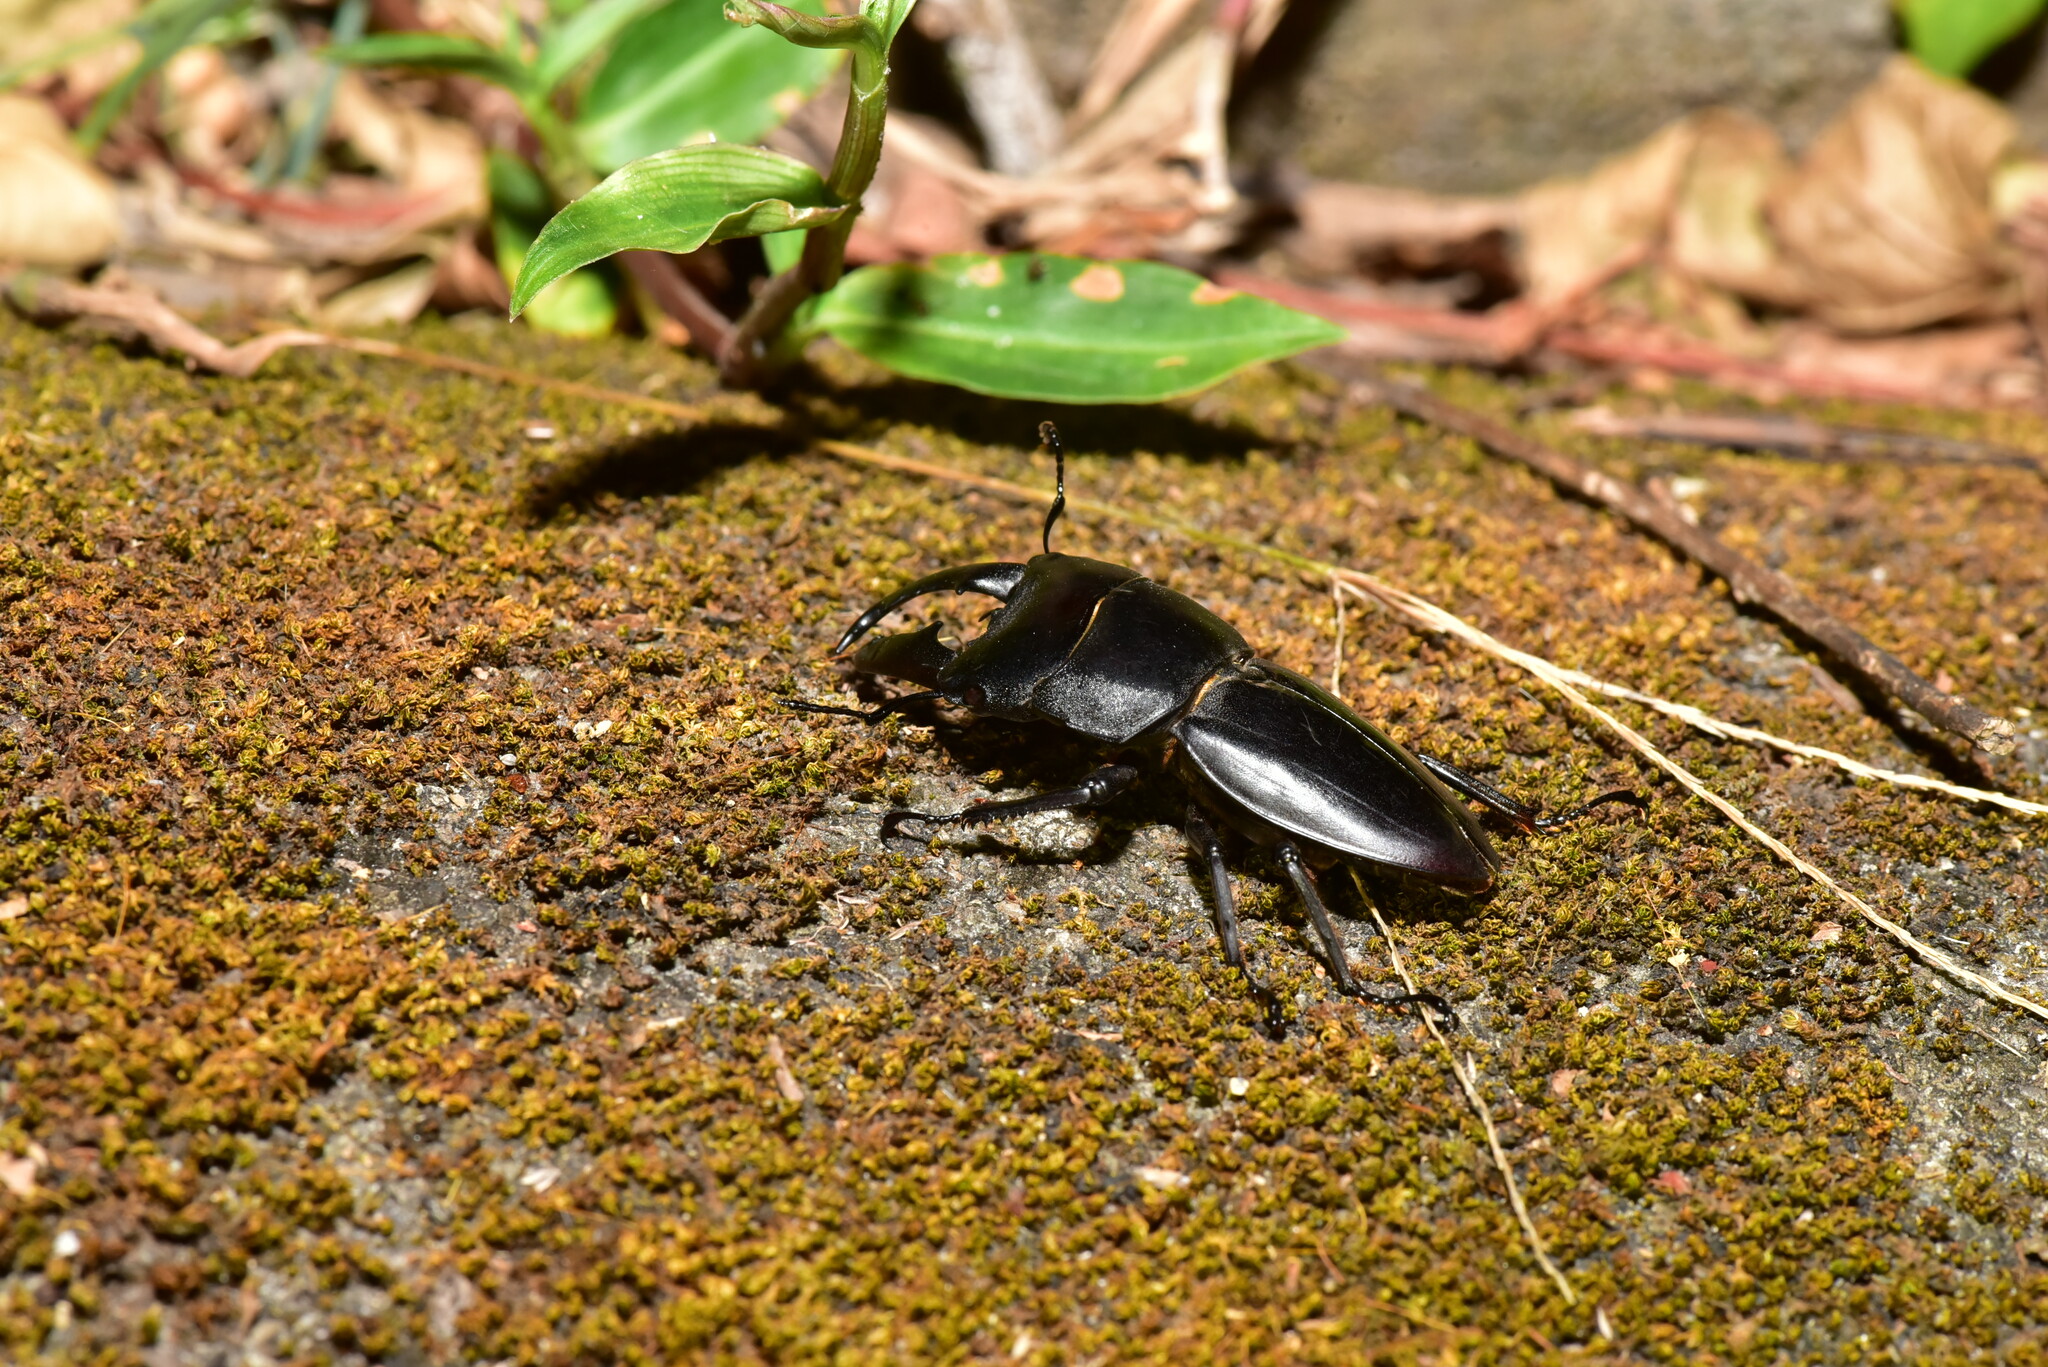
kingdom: Animalia
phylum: Arthropoda
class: Insecta
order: Coleoptera
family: Lucanidae
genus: Serrognathus
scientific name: Serrognathus titanus
